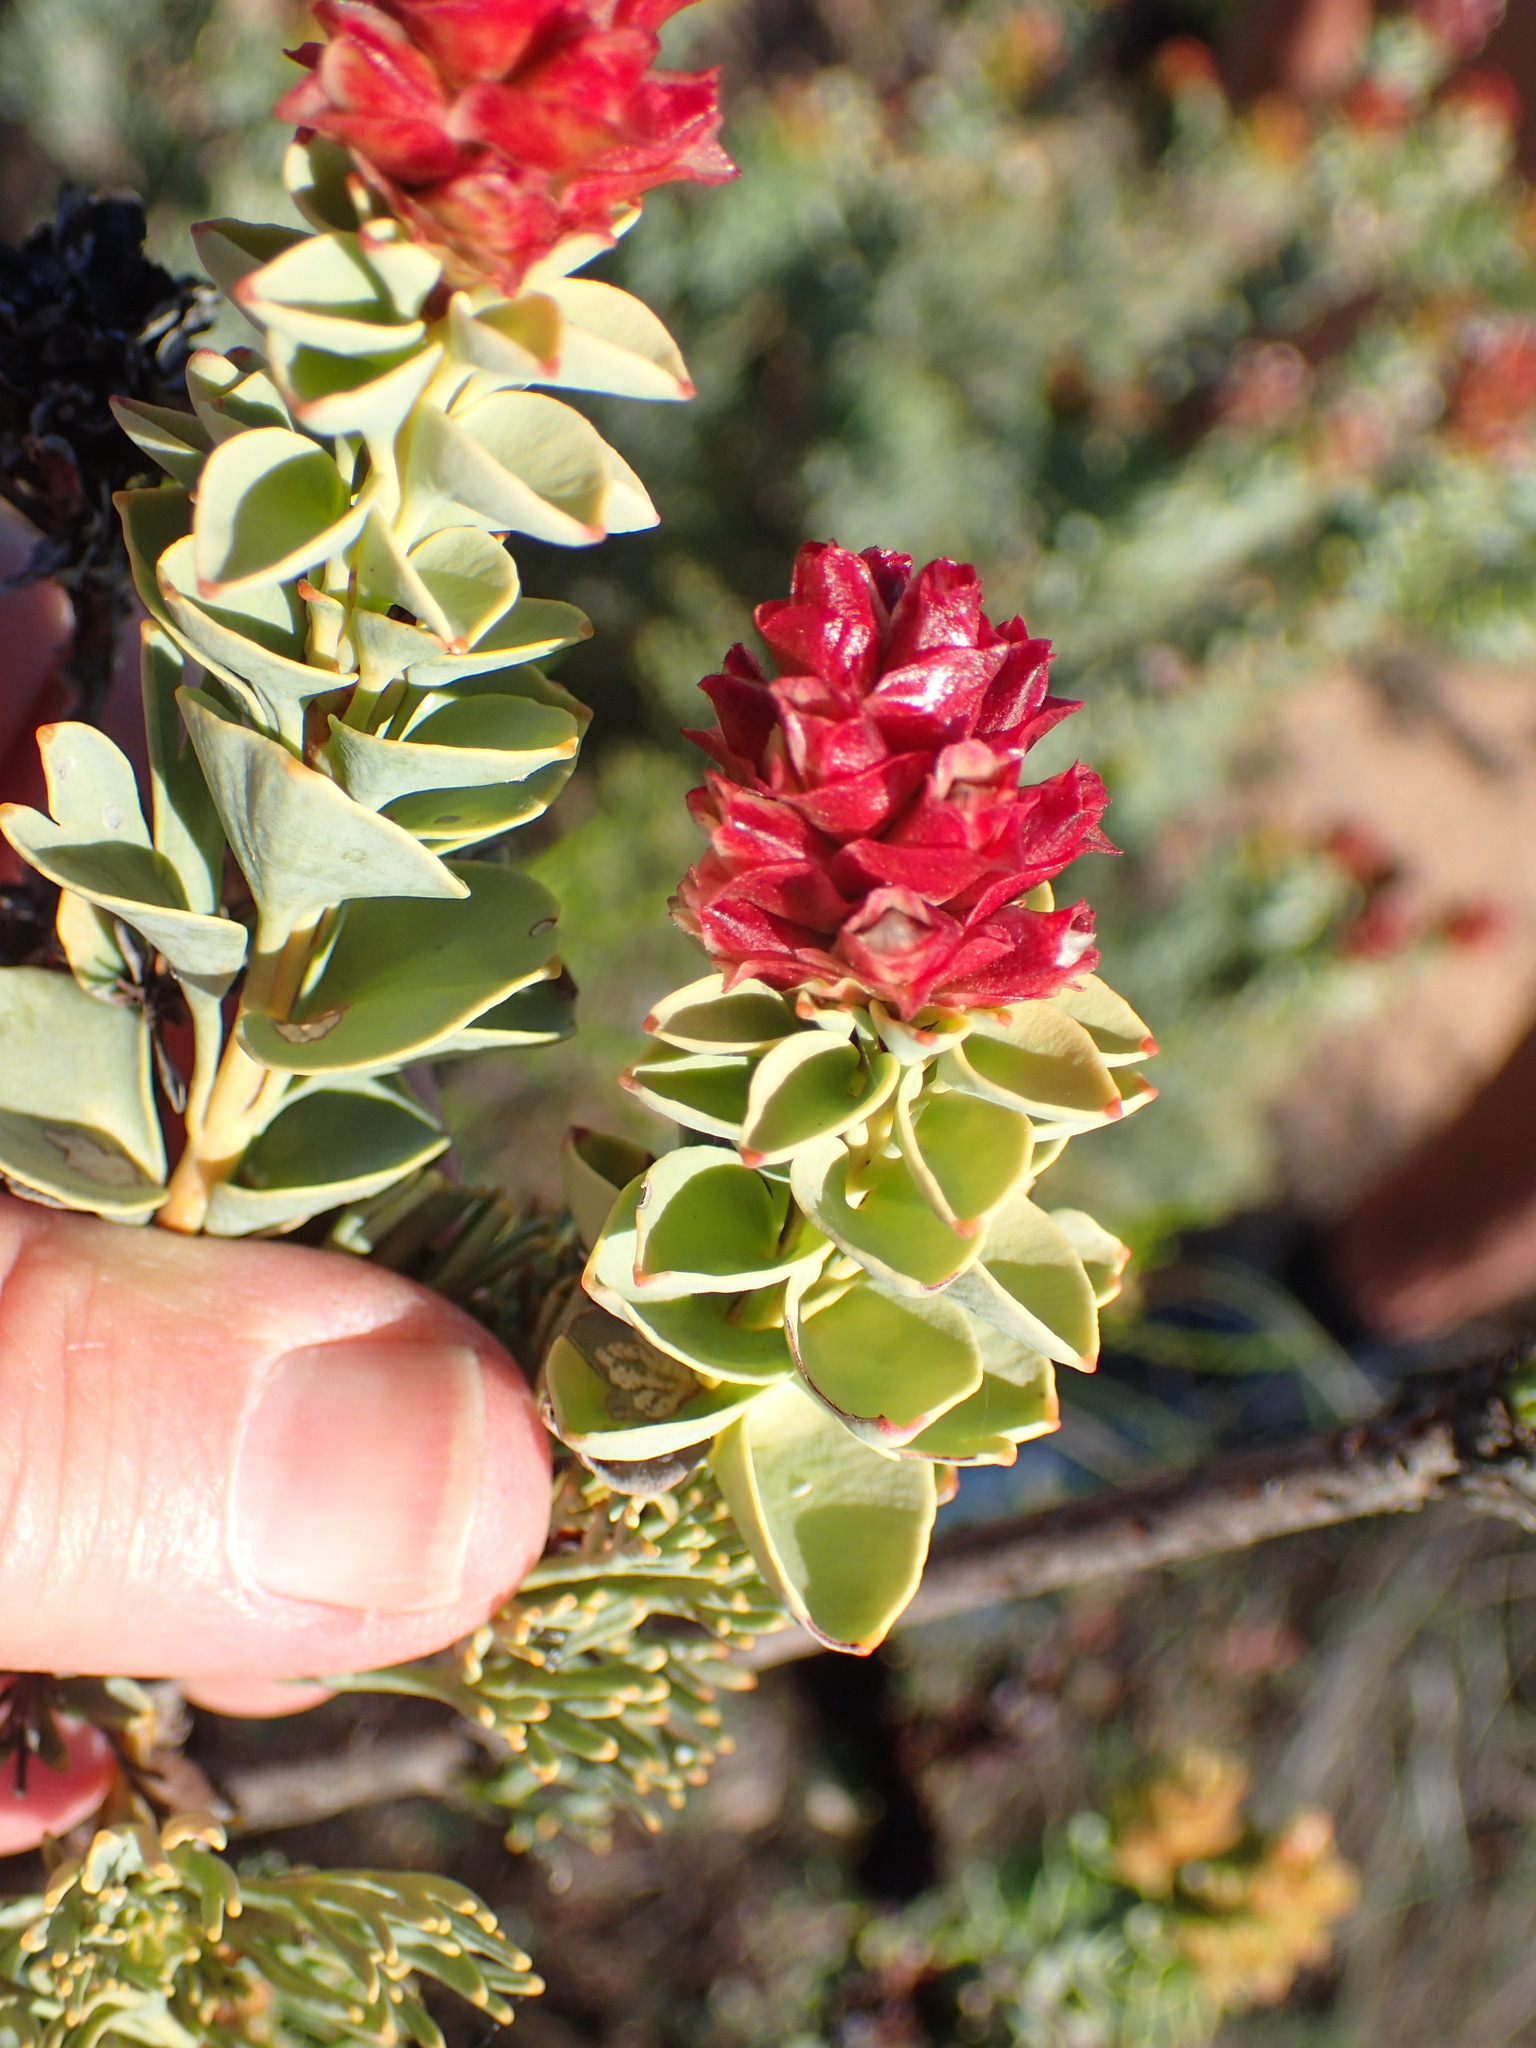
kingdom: Plantae
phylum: Tracheophyta
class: Magnoliopsida
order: Proteales
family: Proteaceae
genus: Paranomus
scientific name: Paranomus roodebergensis
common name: Honey-scented sceptre
